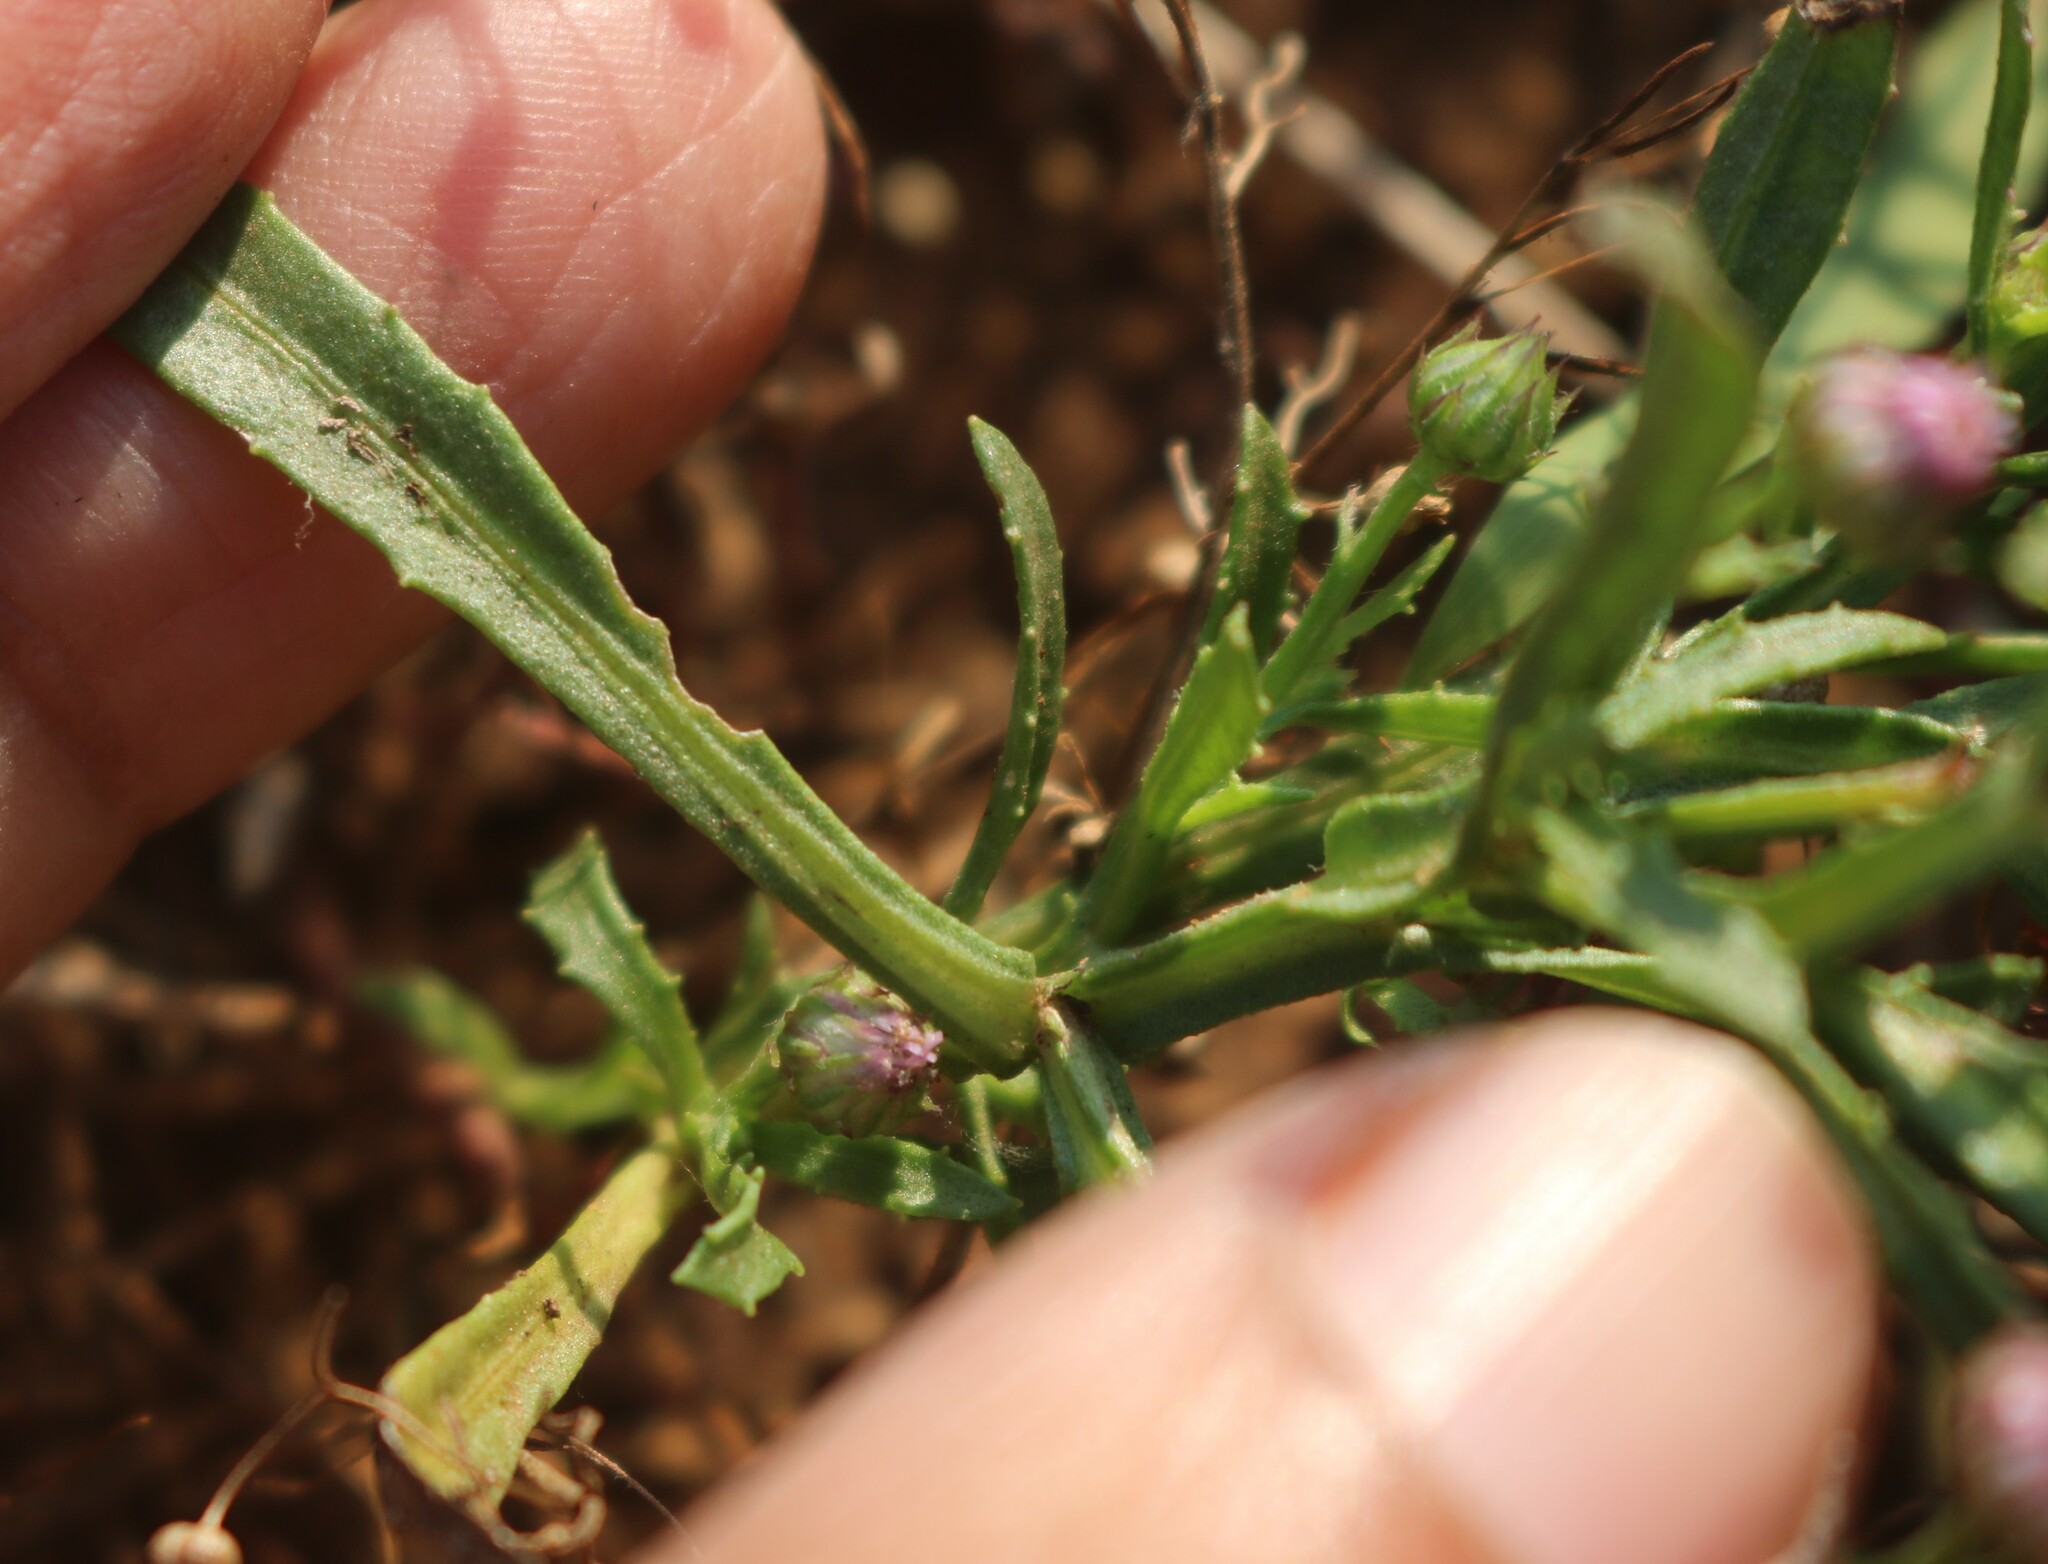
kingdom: Plantae
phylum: Tracheophyta
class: Magnoliopsida
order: Asterales
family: Asteraceae
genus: Epaltes
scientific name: Epaltes divaricata
